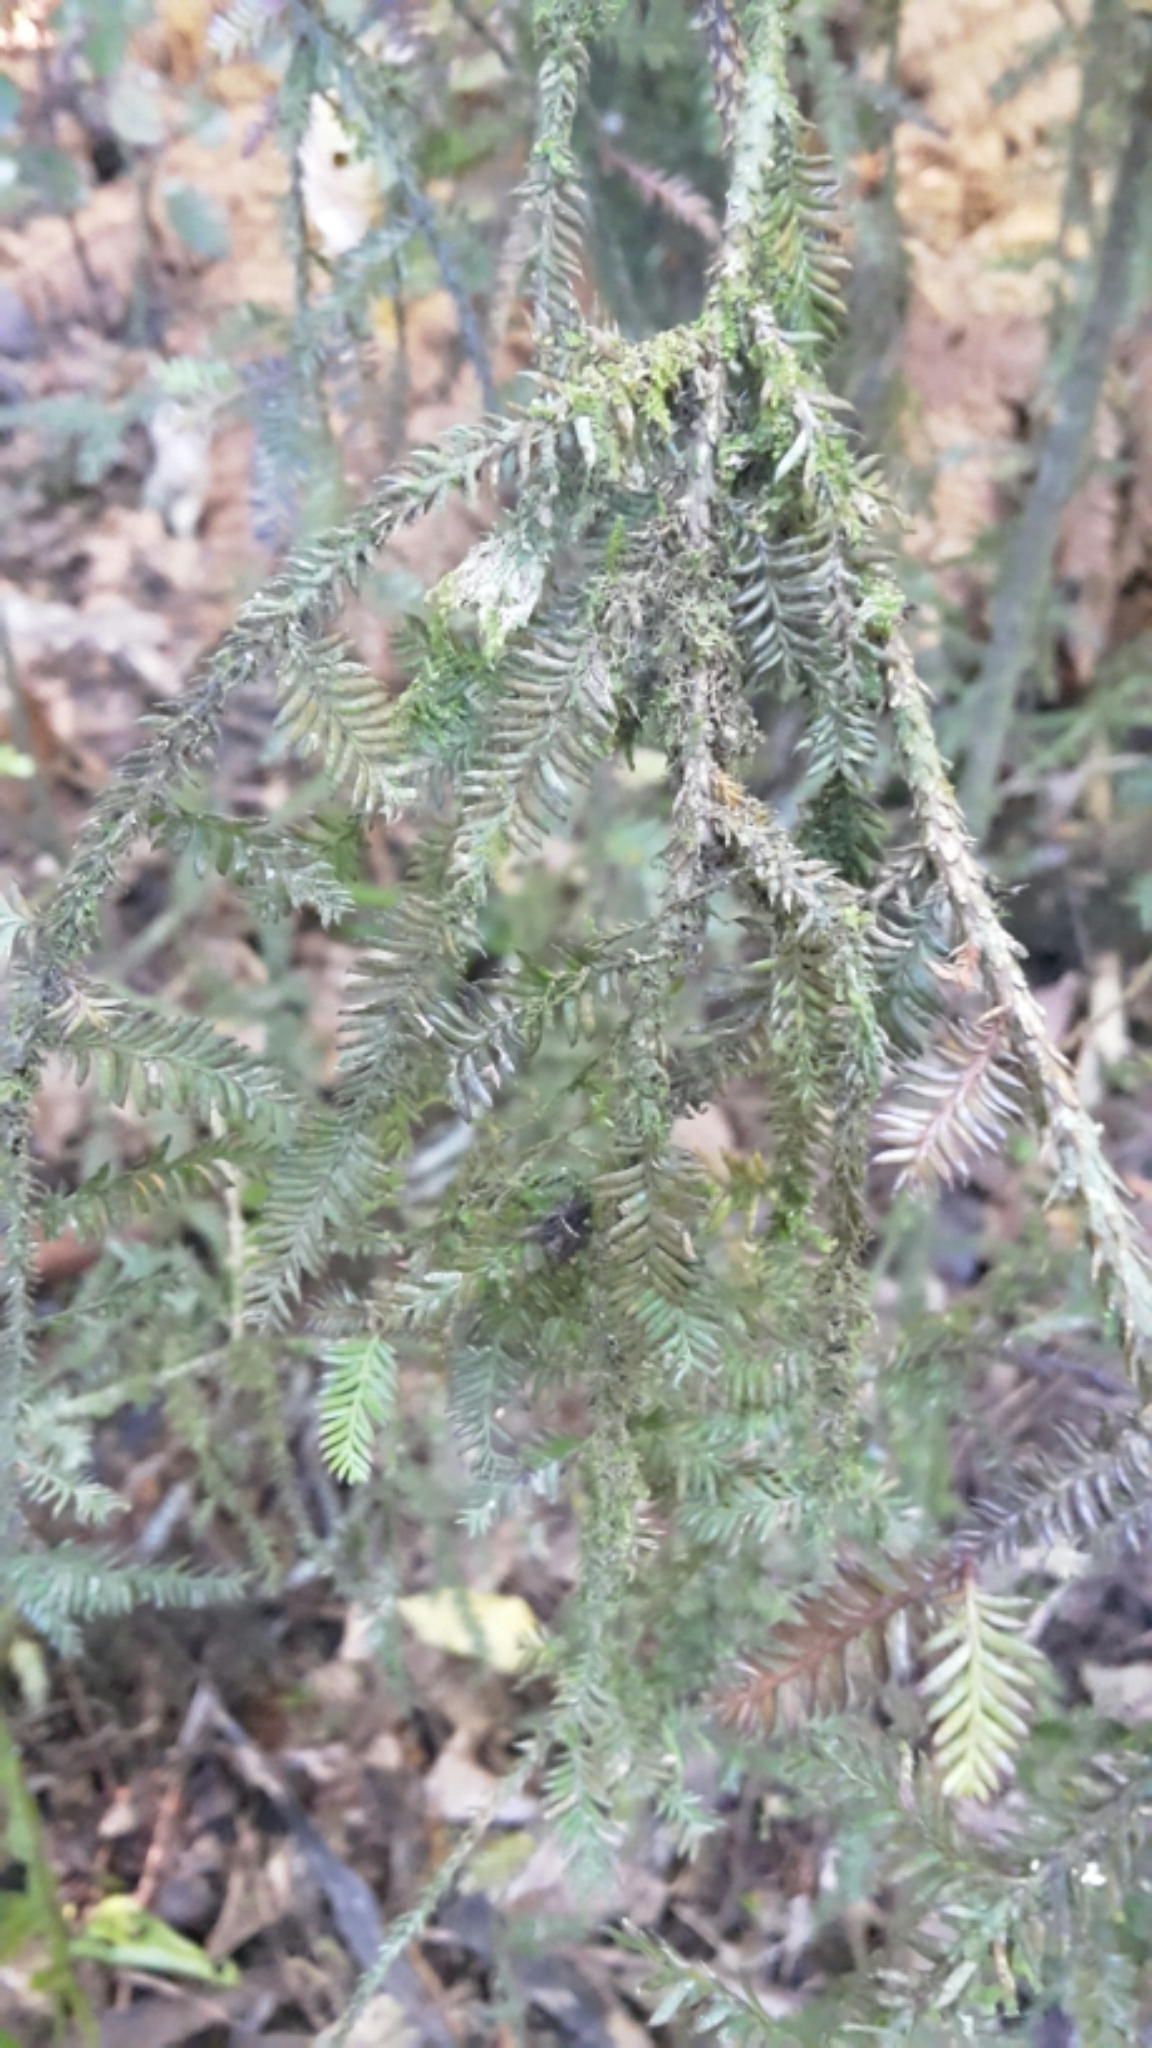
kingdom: Plantae
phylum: Tracheophyta
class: Pinopsida
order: Pinales
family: Podocarpaceae
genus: Dacrycarpus
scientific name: Dacrycarpus dacrydioides
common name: White pine
